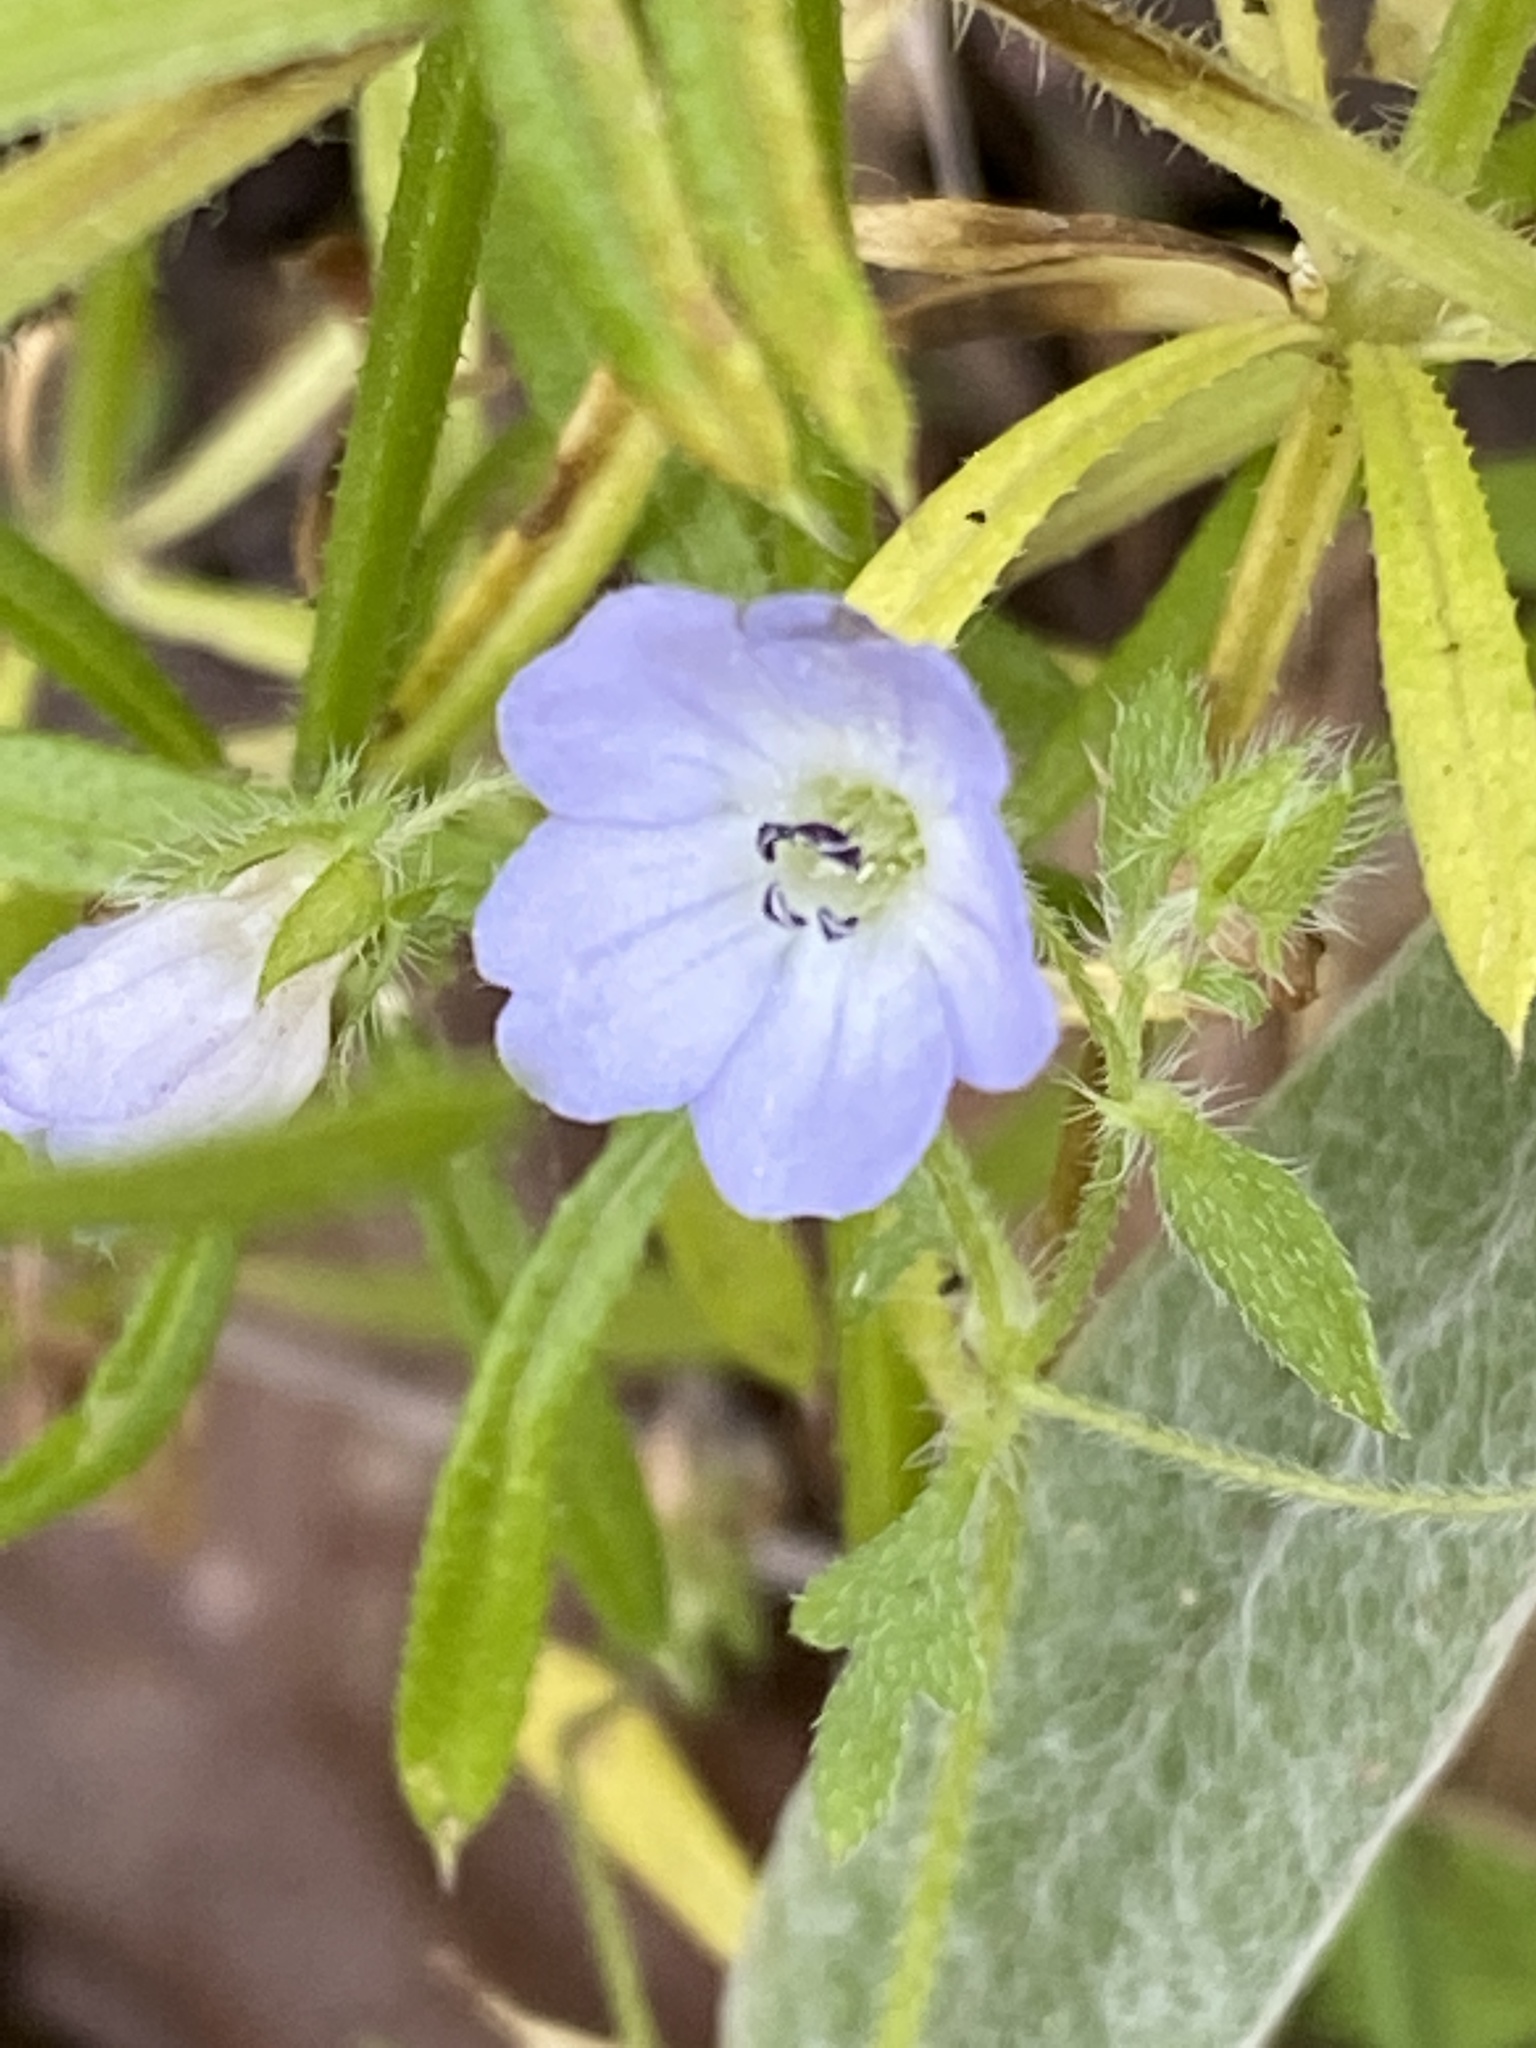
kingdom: Plantae
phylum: Tracheophyta
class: Magnoliopsida
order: Boraginales
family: Hydrophyllaceae
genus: Nemophila
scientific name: Nemophila menziesii
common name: Baby's-blue-eyes
